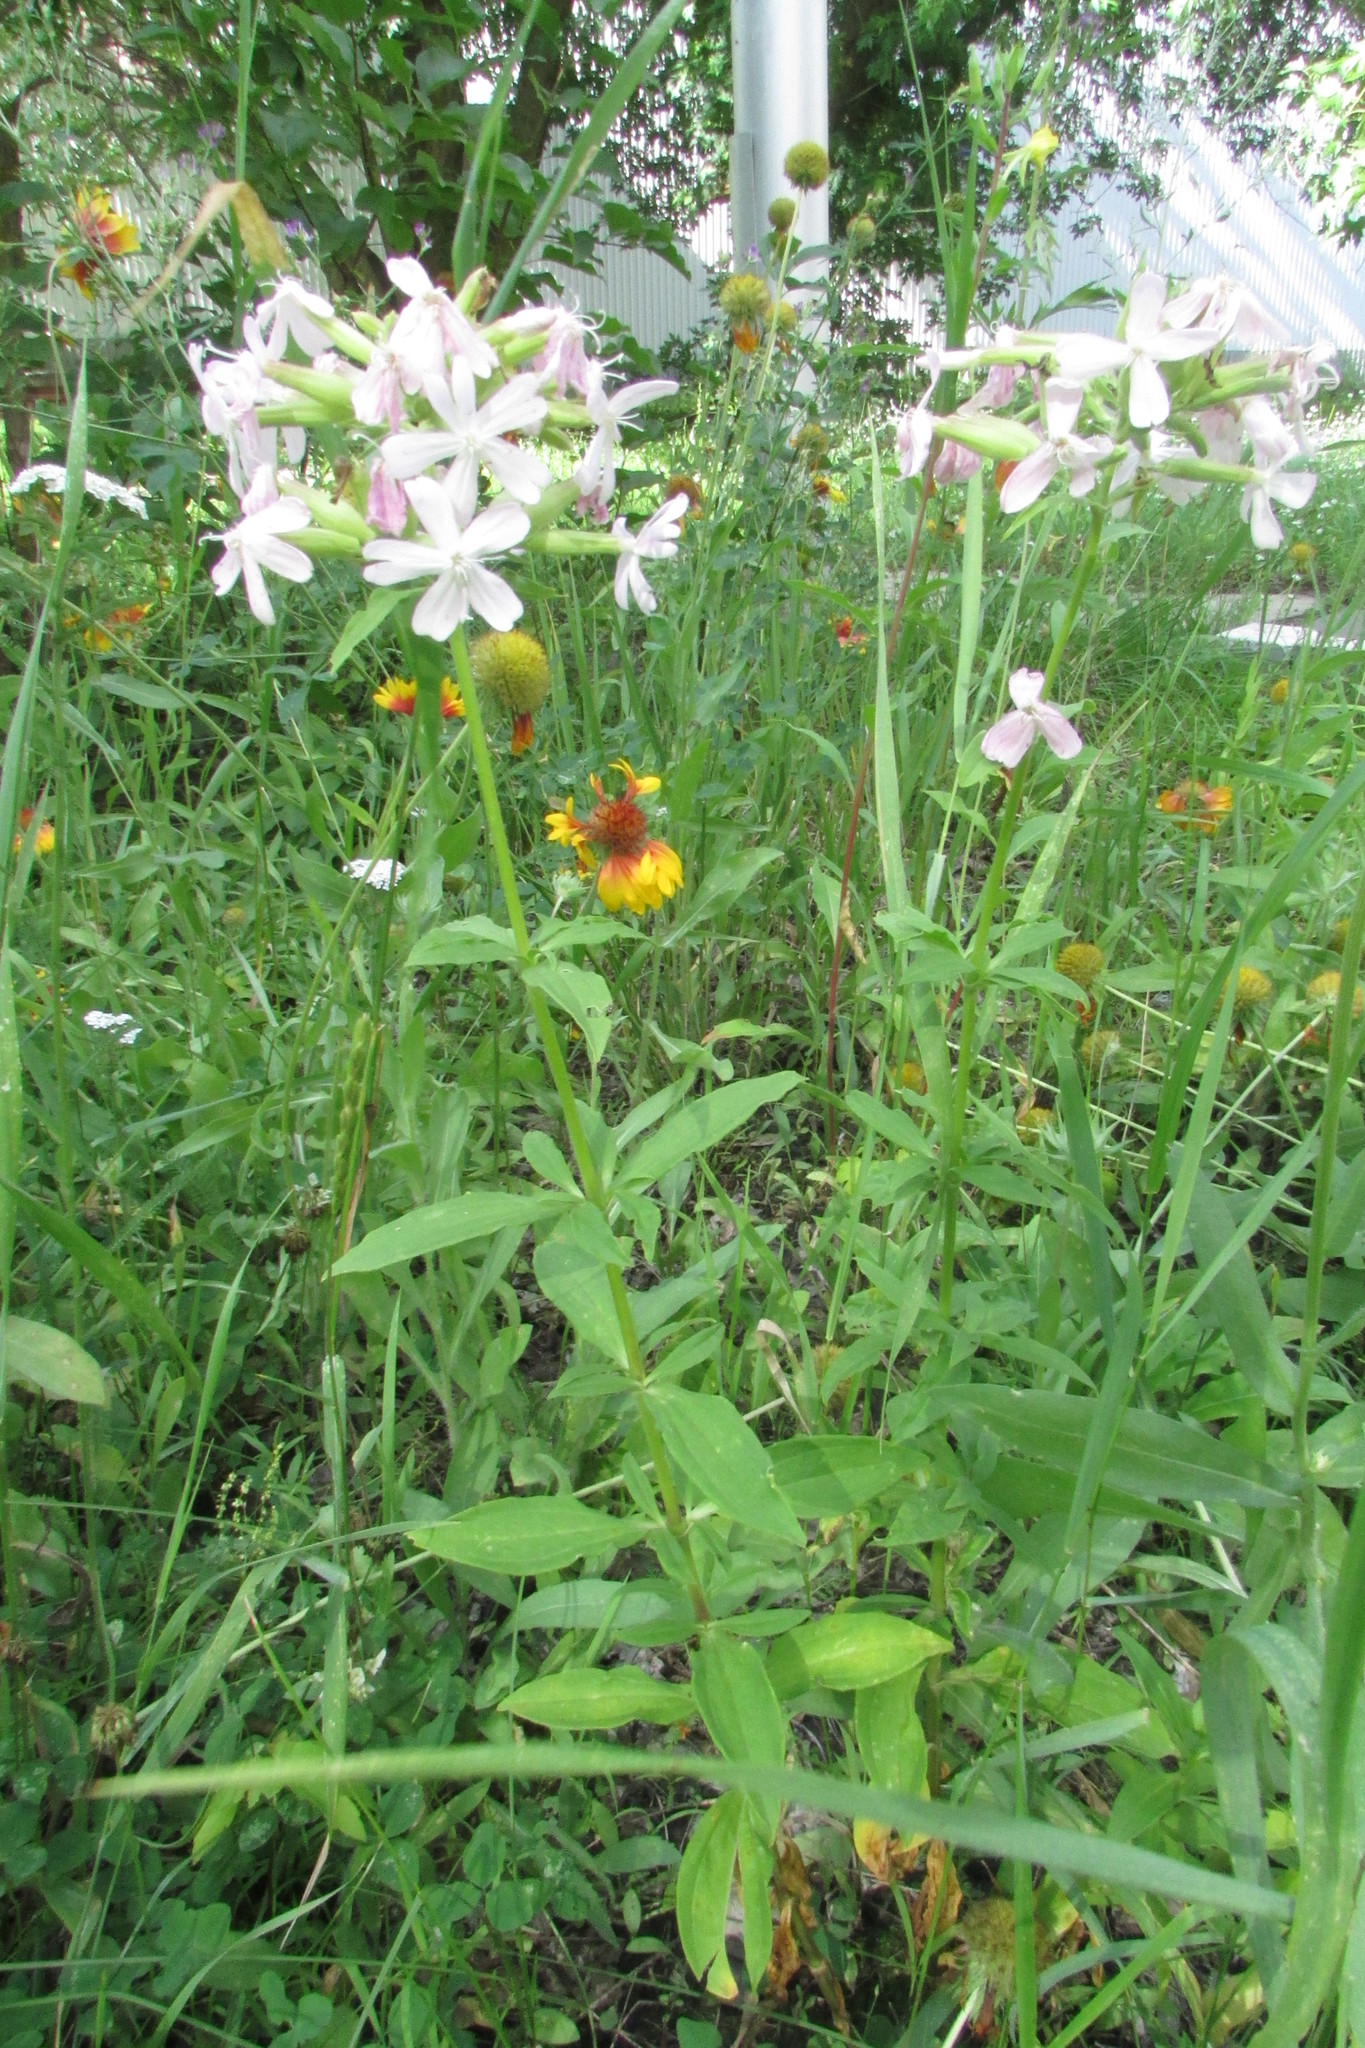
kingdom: Plantae
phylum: Tracheophyta
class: Magnoliopsida
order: Caryophyllales
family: Caryophyllaceae
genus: Saponaria
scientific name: Saponaria officinalis
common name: Soapwort
